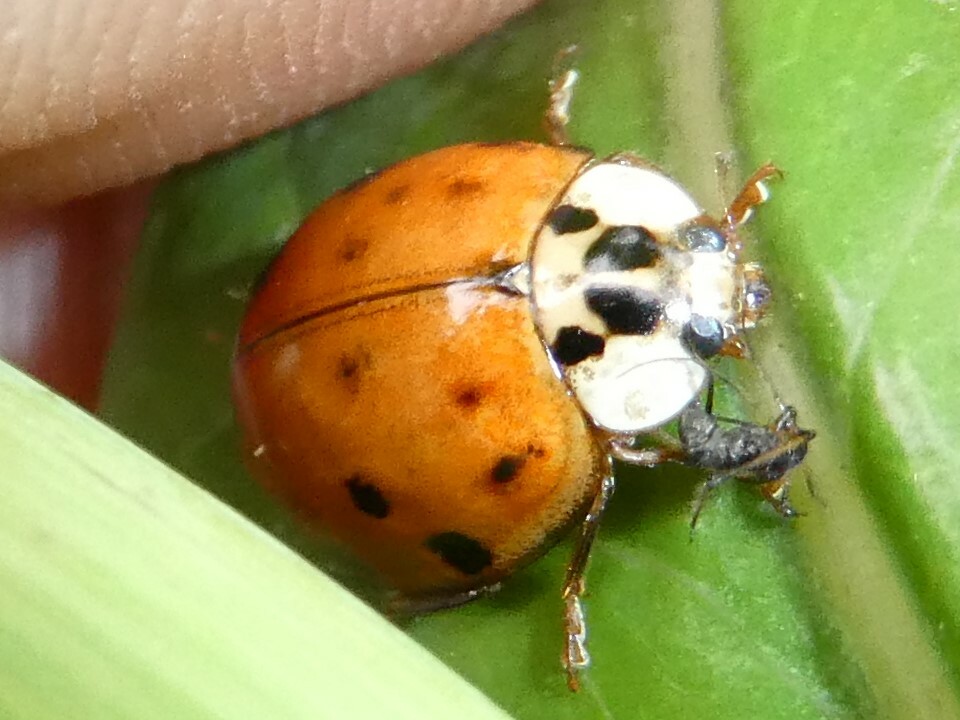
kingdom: Animalia
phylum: Arthropoda
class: Insecta
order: Coleoptera
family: Coccinellidae
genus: Harmonia
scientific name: Harmonia axyridis
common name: Harlequin ladybird
